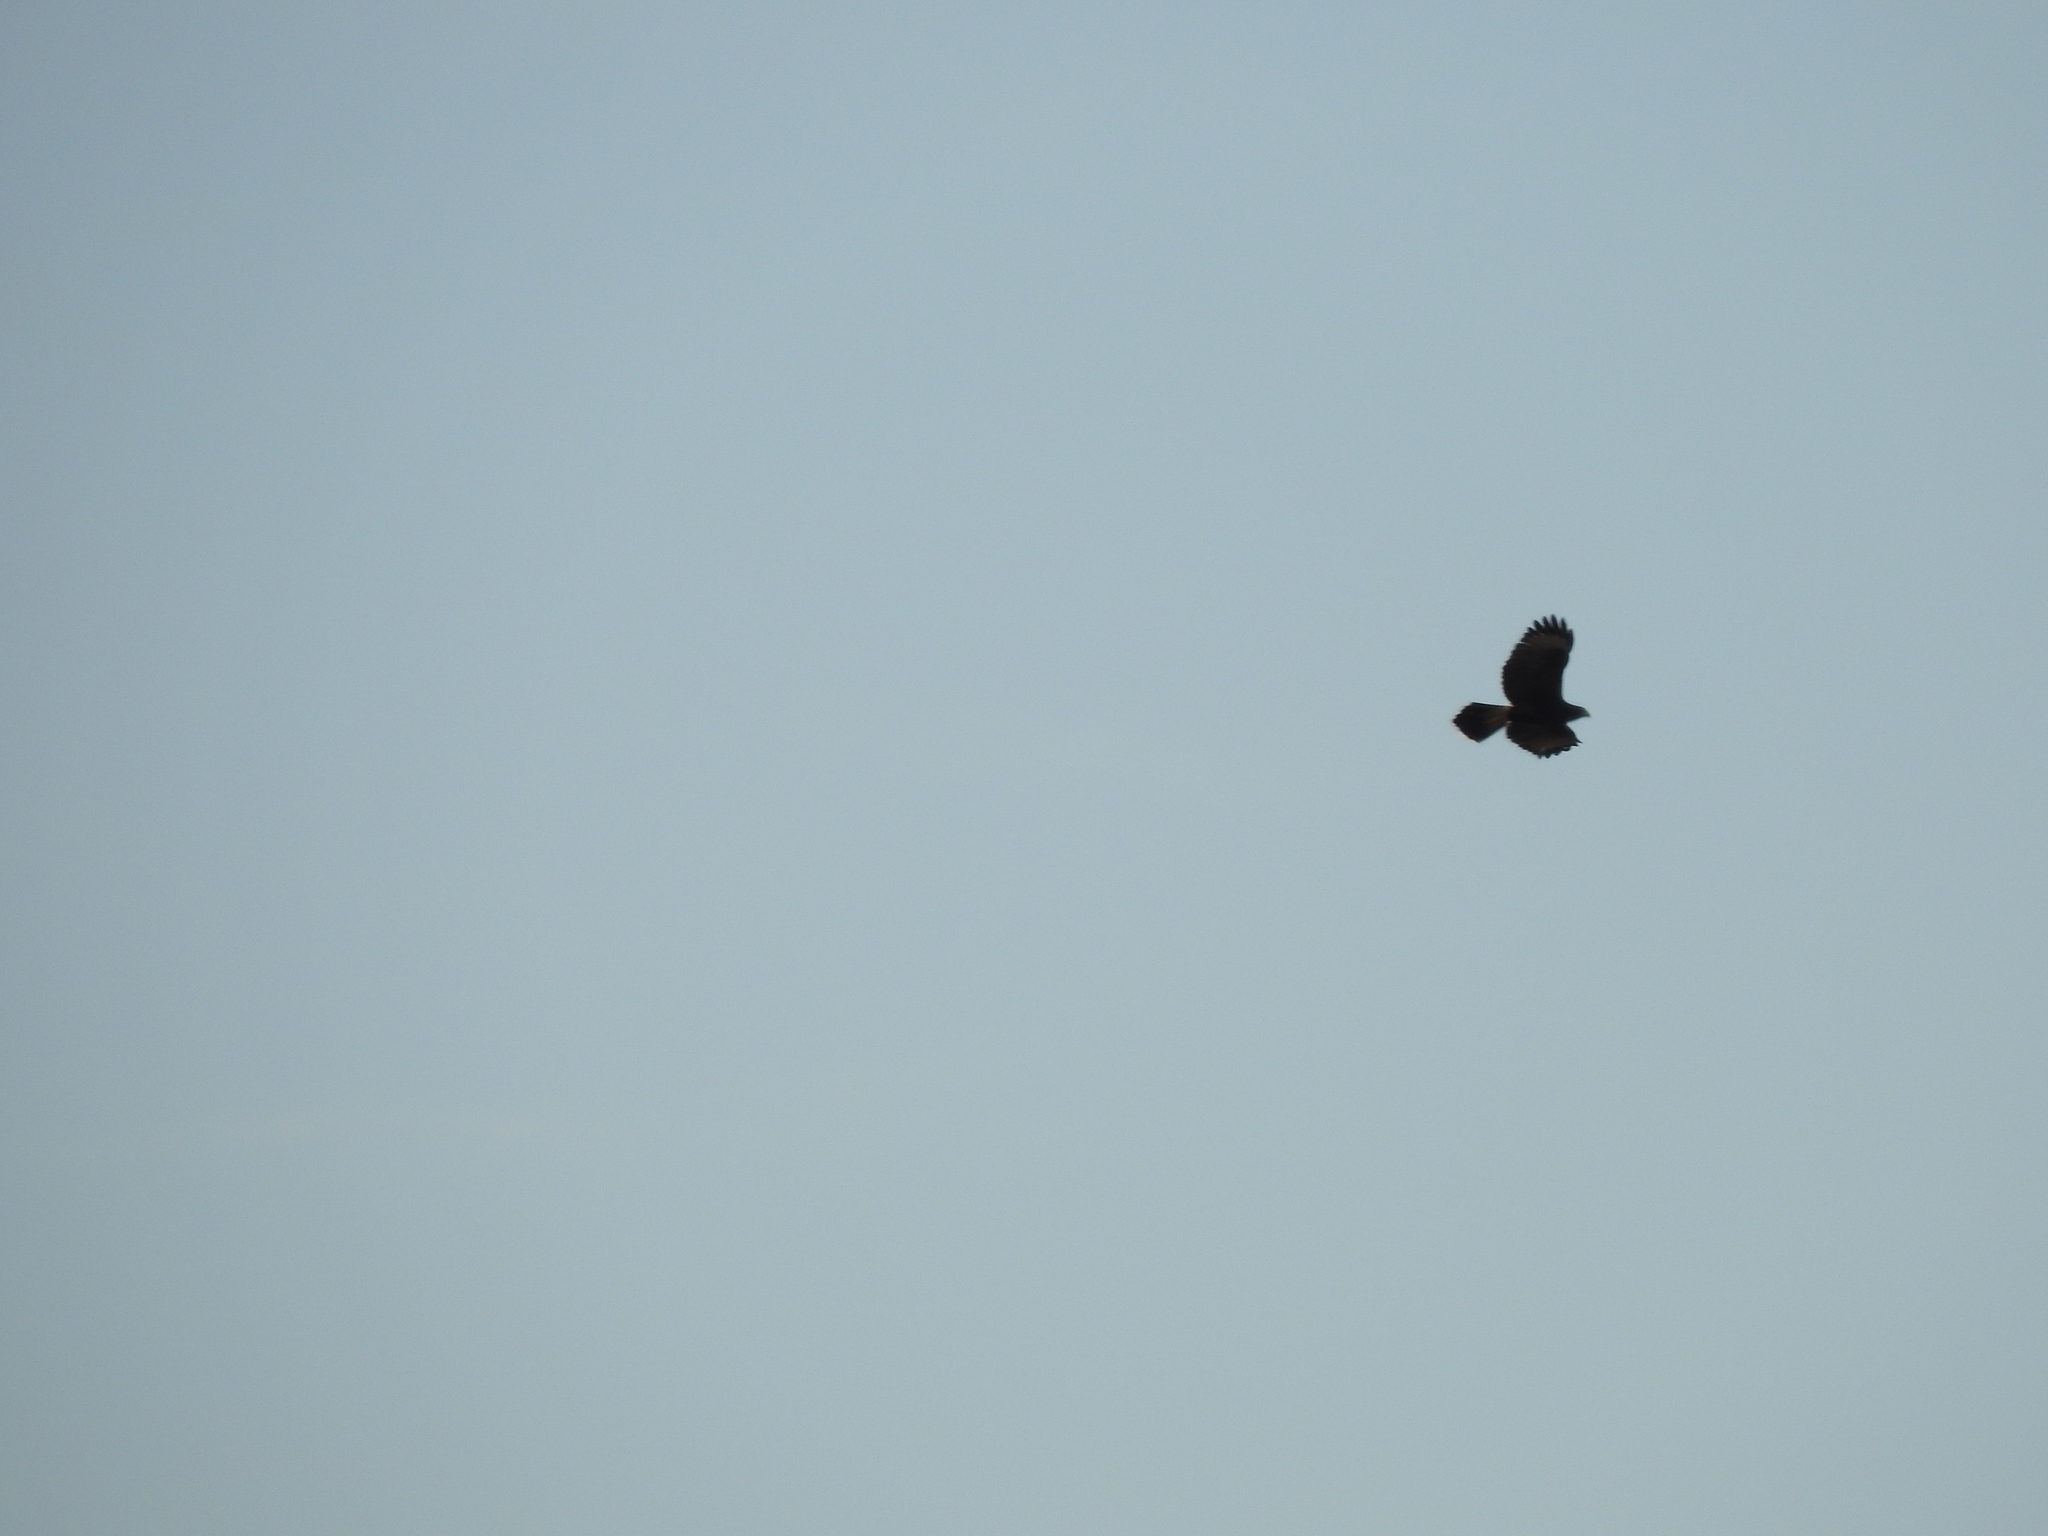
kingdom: Animalia
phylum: Chordata
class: Aves
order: Accipitriformes
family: Accipitridae
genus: Parabuteo
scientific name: Parabuteo unicinctus
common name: Harris's hawk
